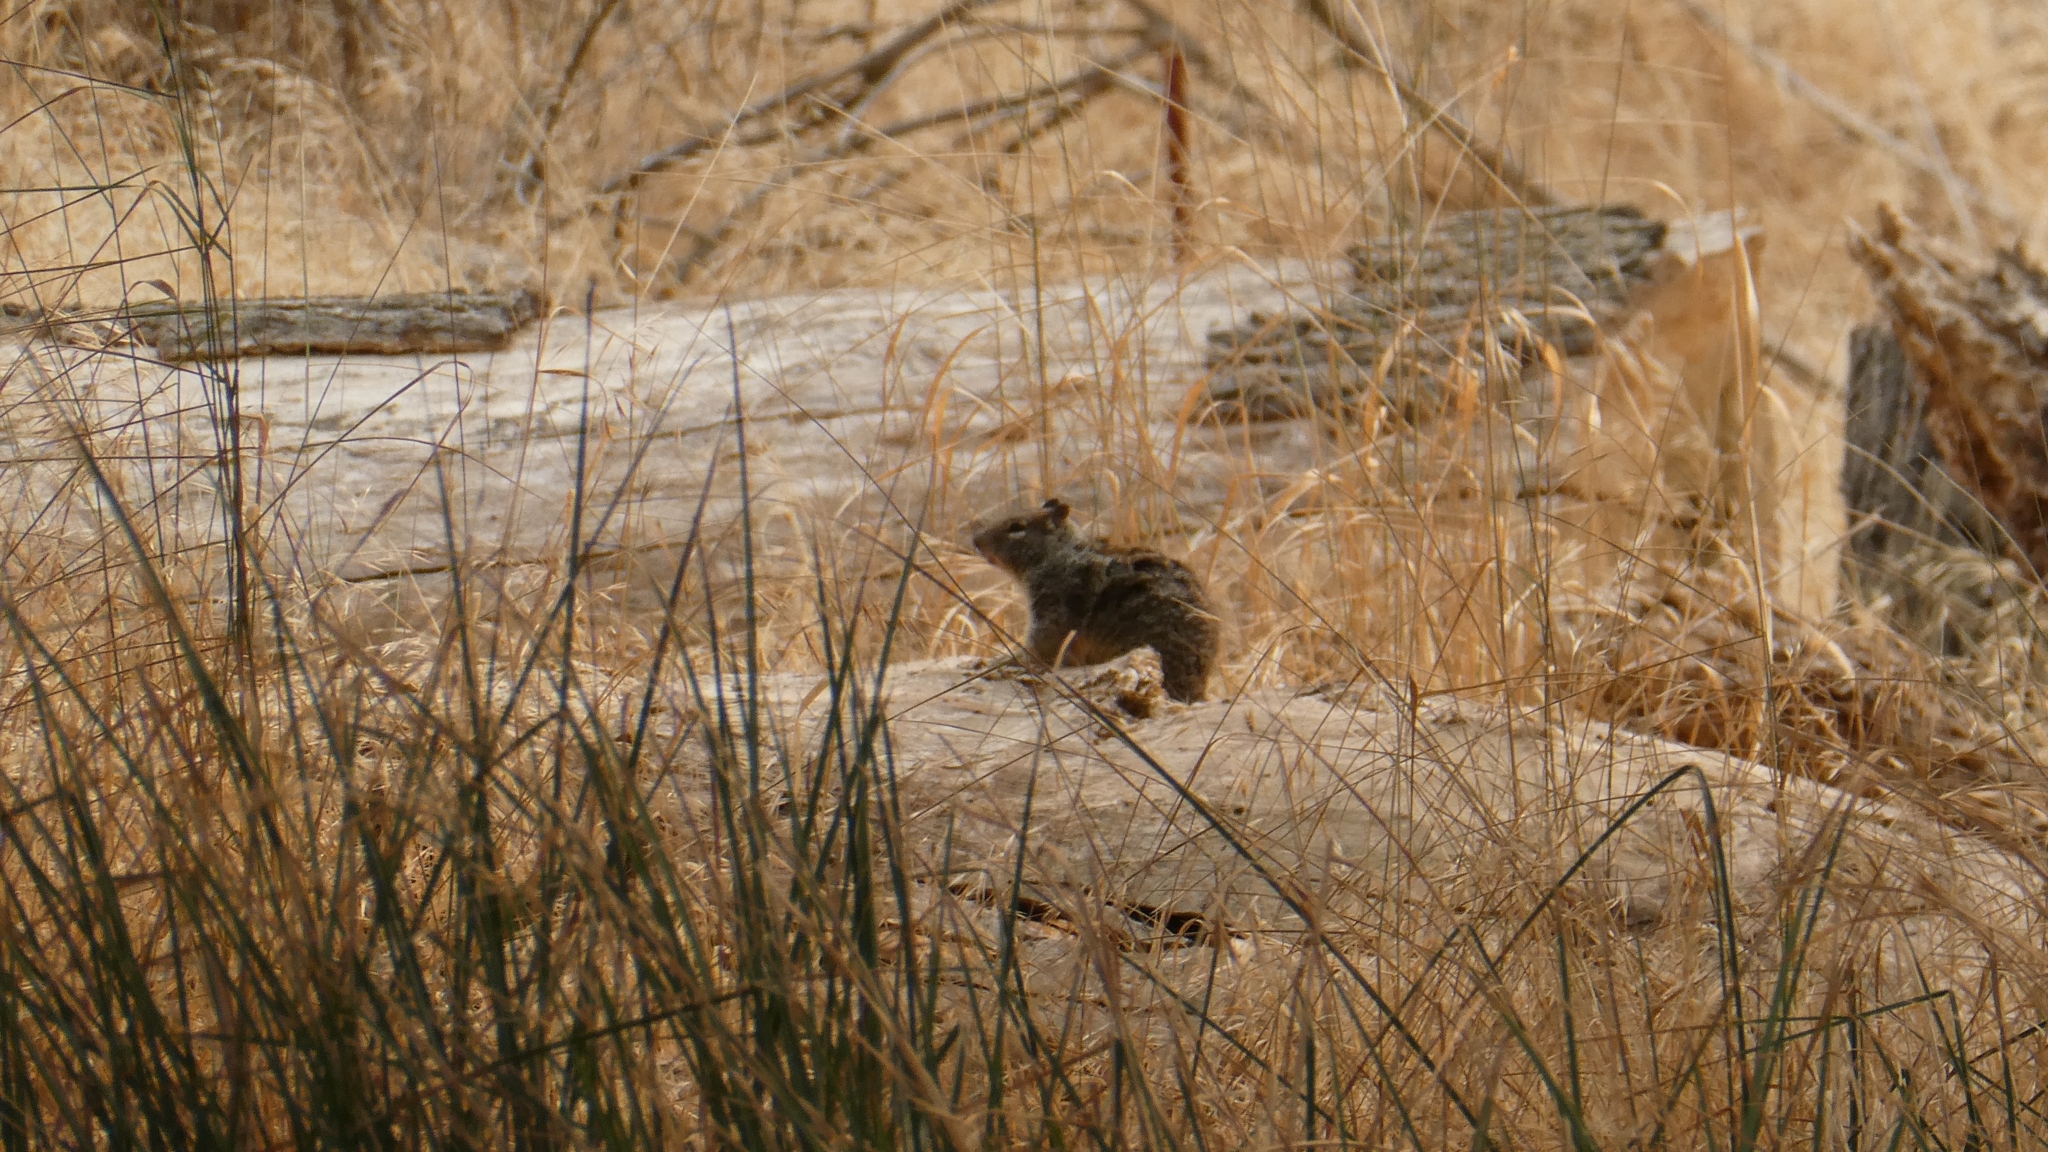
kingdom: Animalia
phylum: Chordata
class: Mammalia
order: Rodentia
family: Sciuridae
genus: Otospermophilus
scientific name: Otospermophilus beecheyi
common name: California ground squirrel
